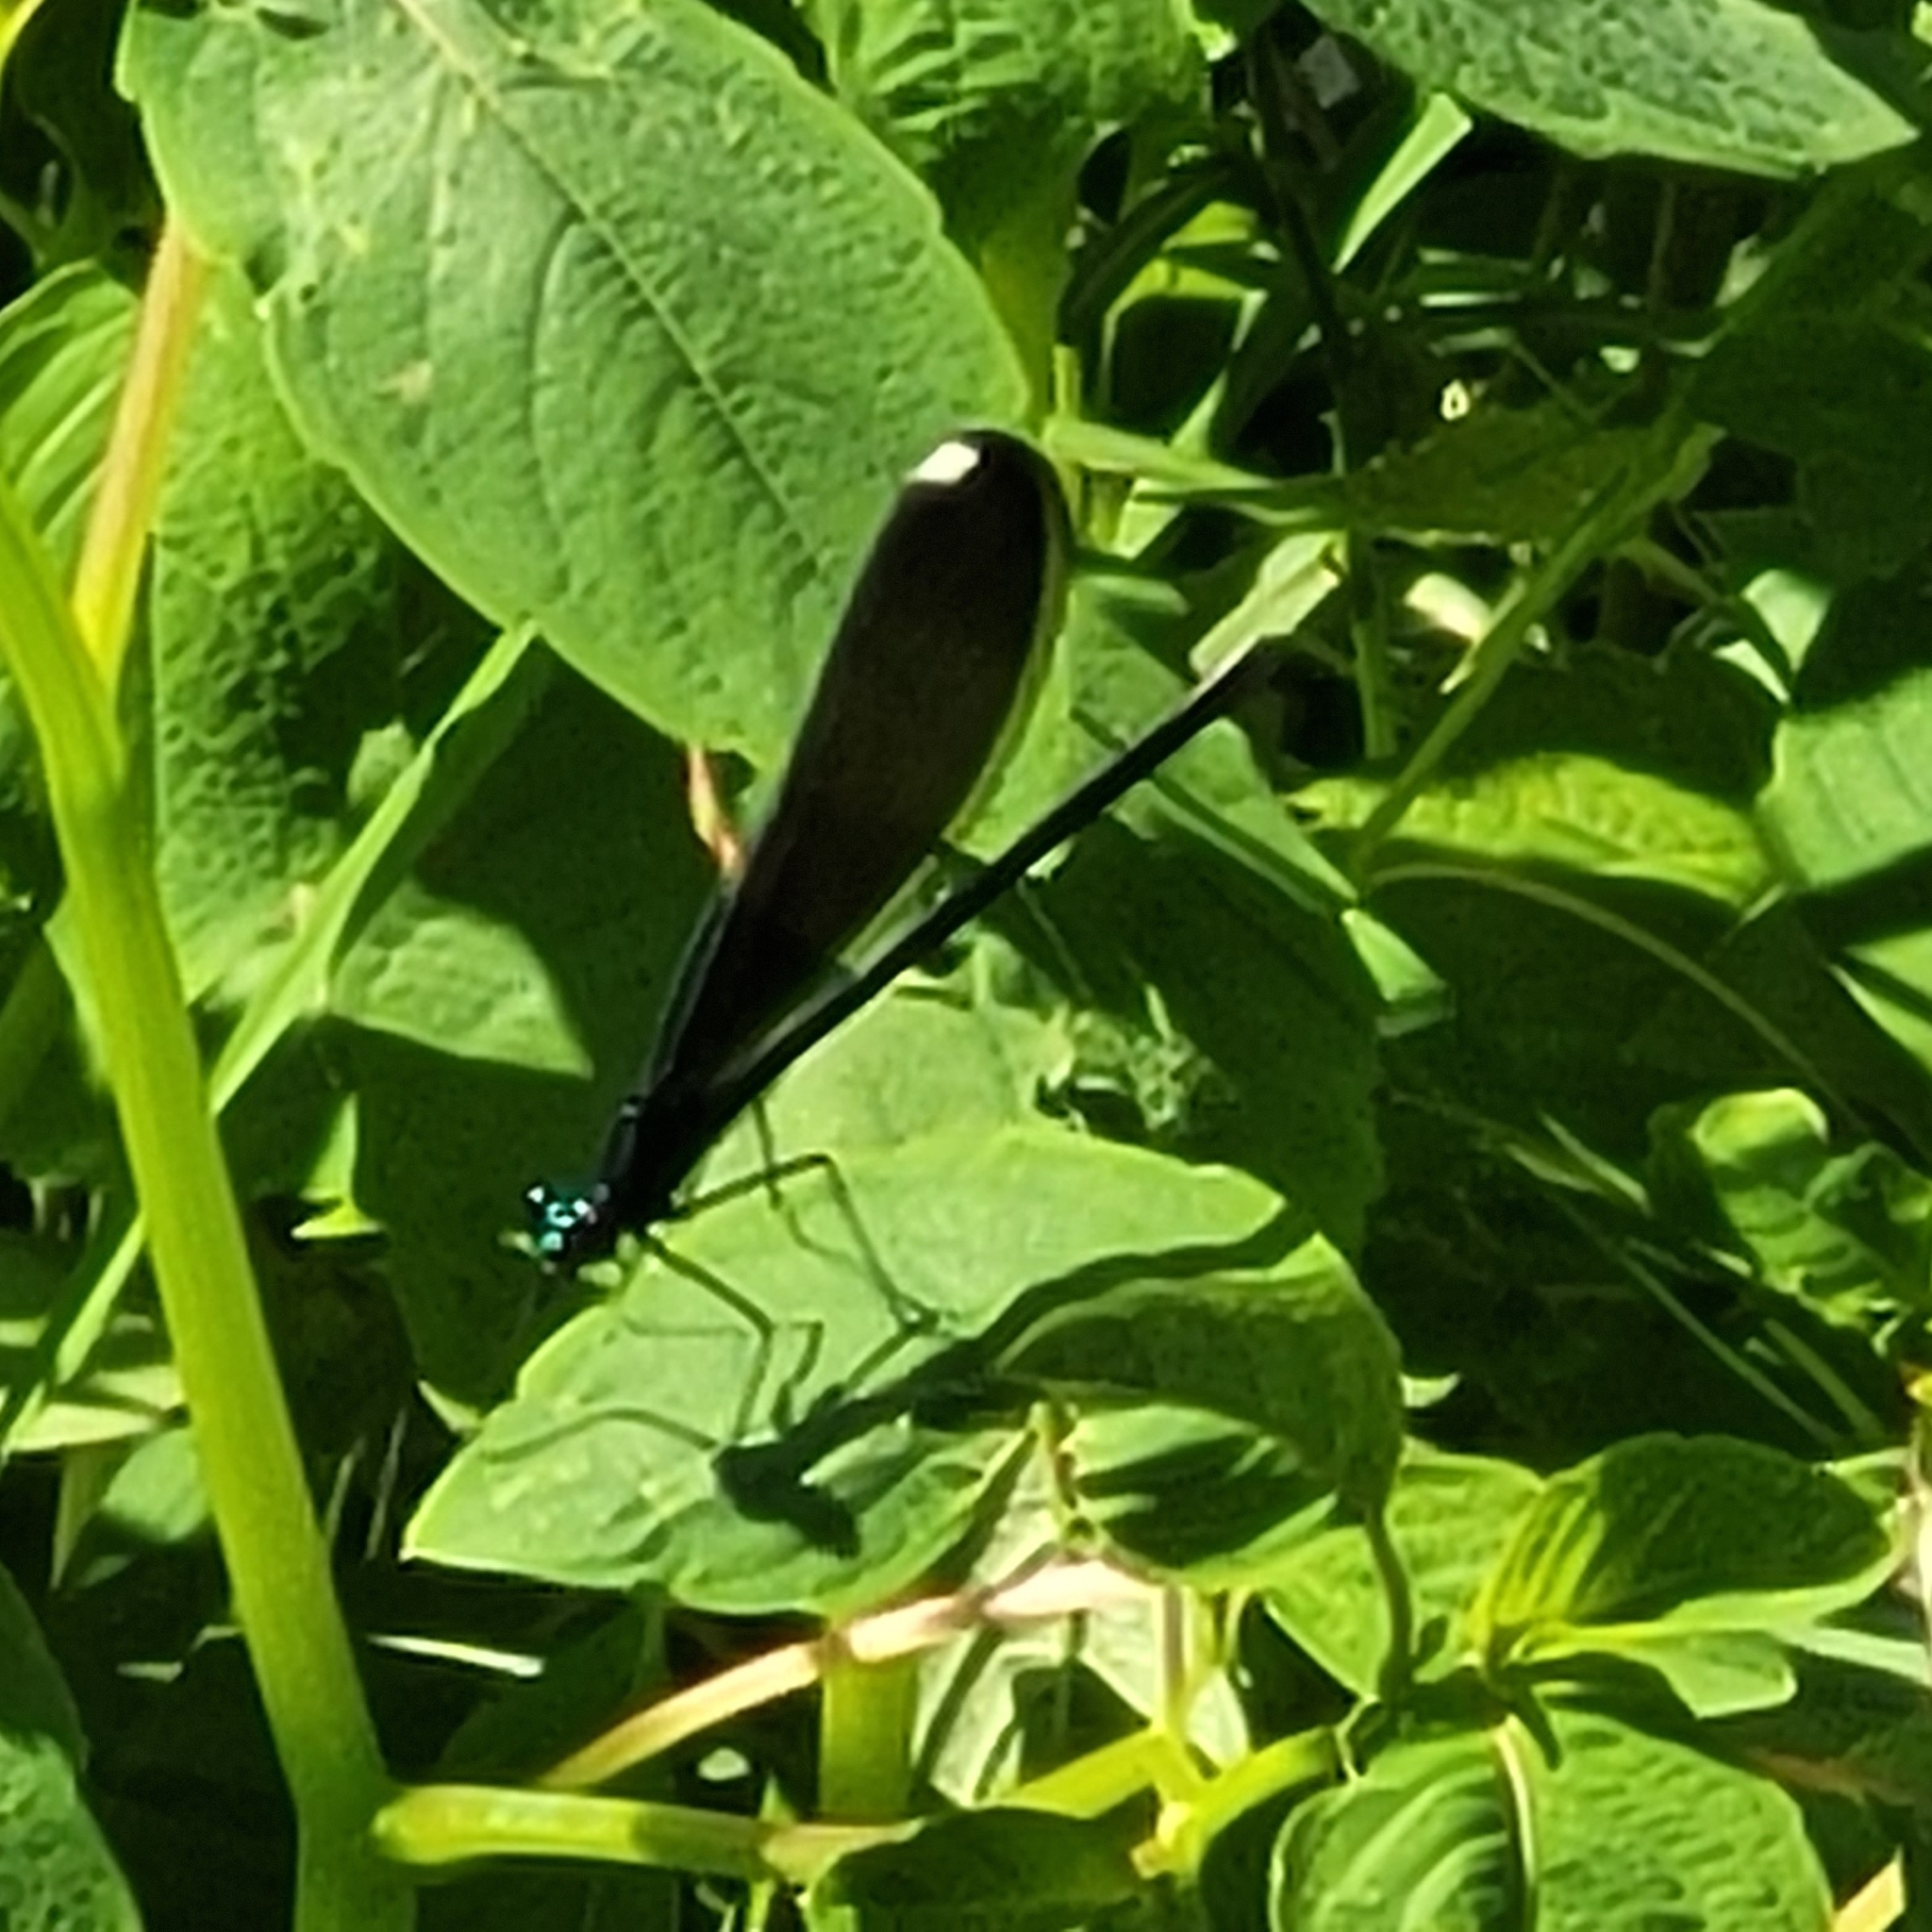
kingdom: Animalia
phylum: Arthropoda
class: Insecta
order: Odonata
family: Calopterygidae
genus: Calopteryx
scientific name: Calopteryx maculata
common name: Ebony jewelwing
